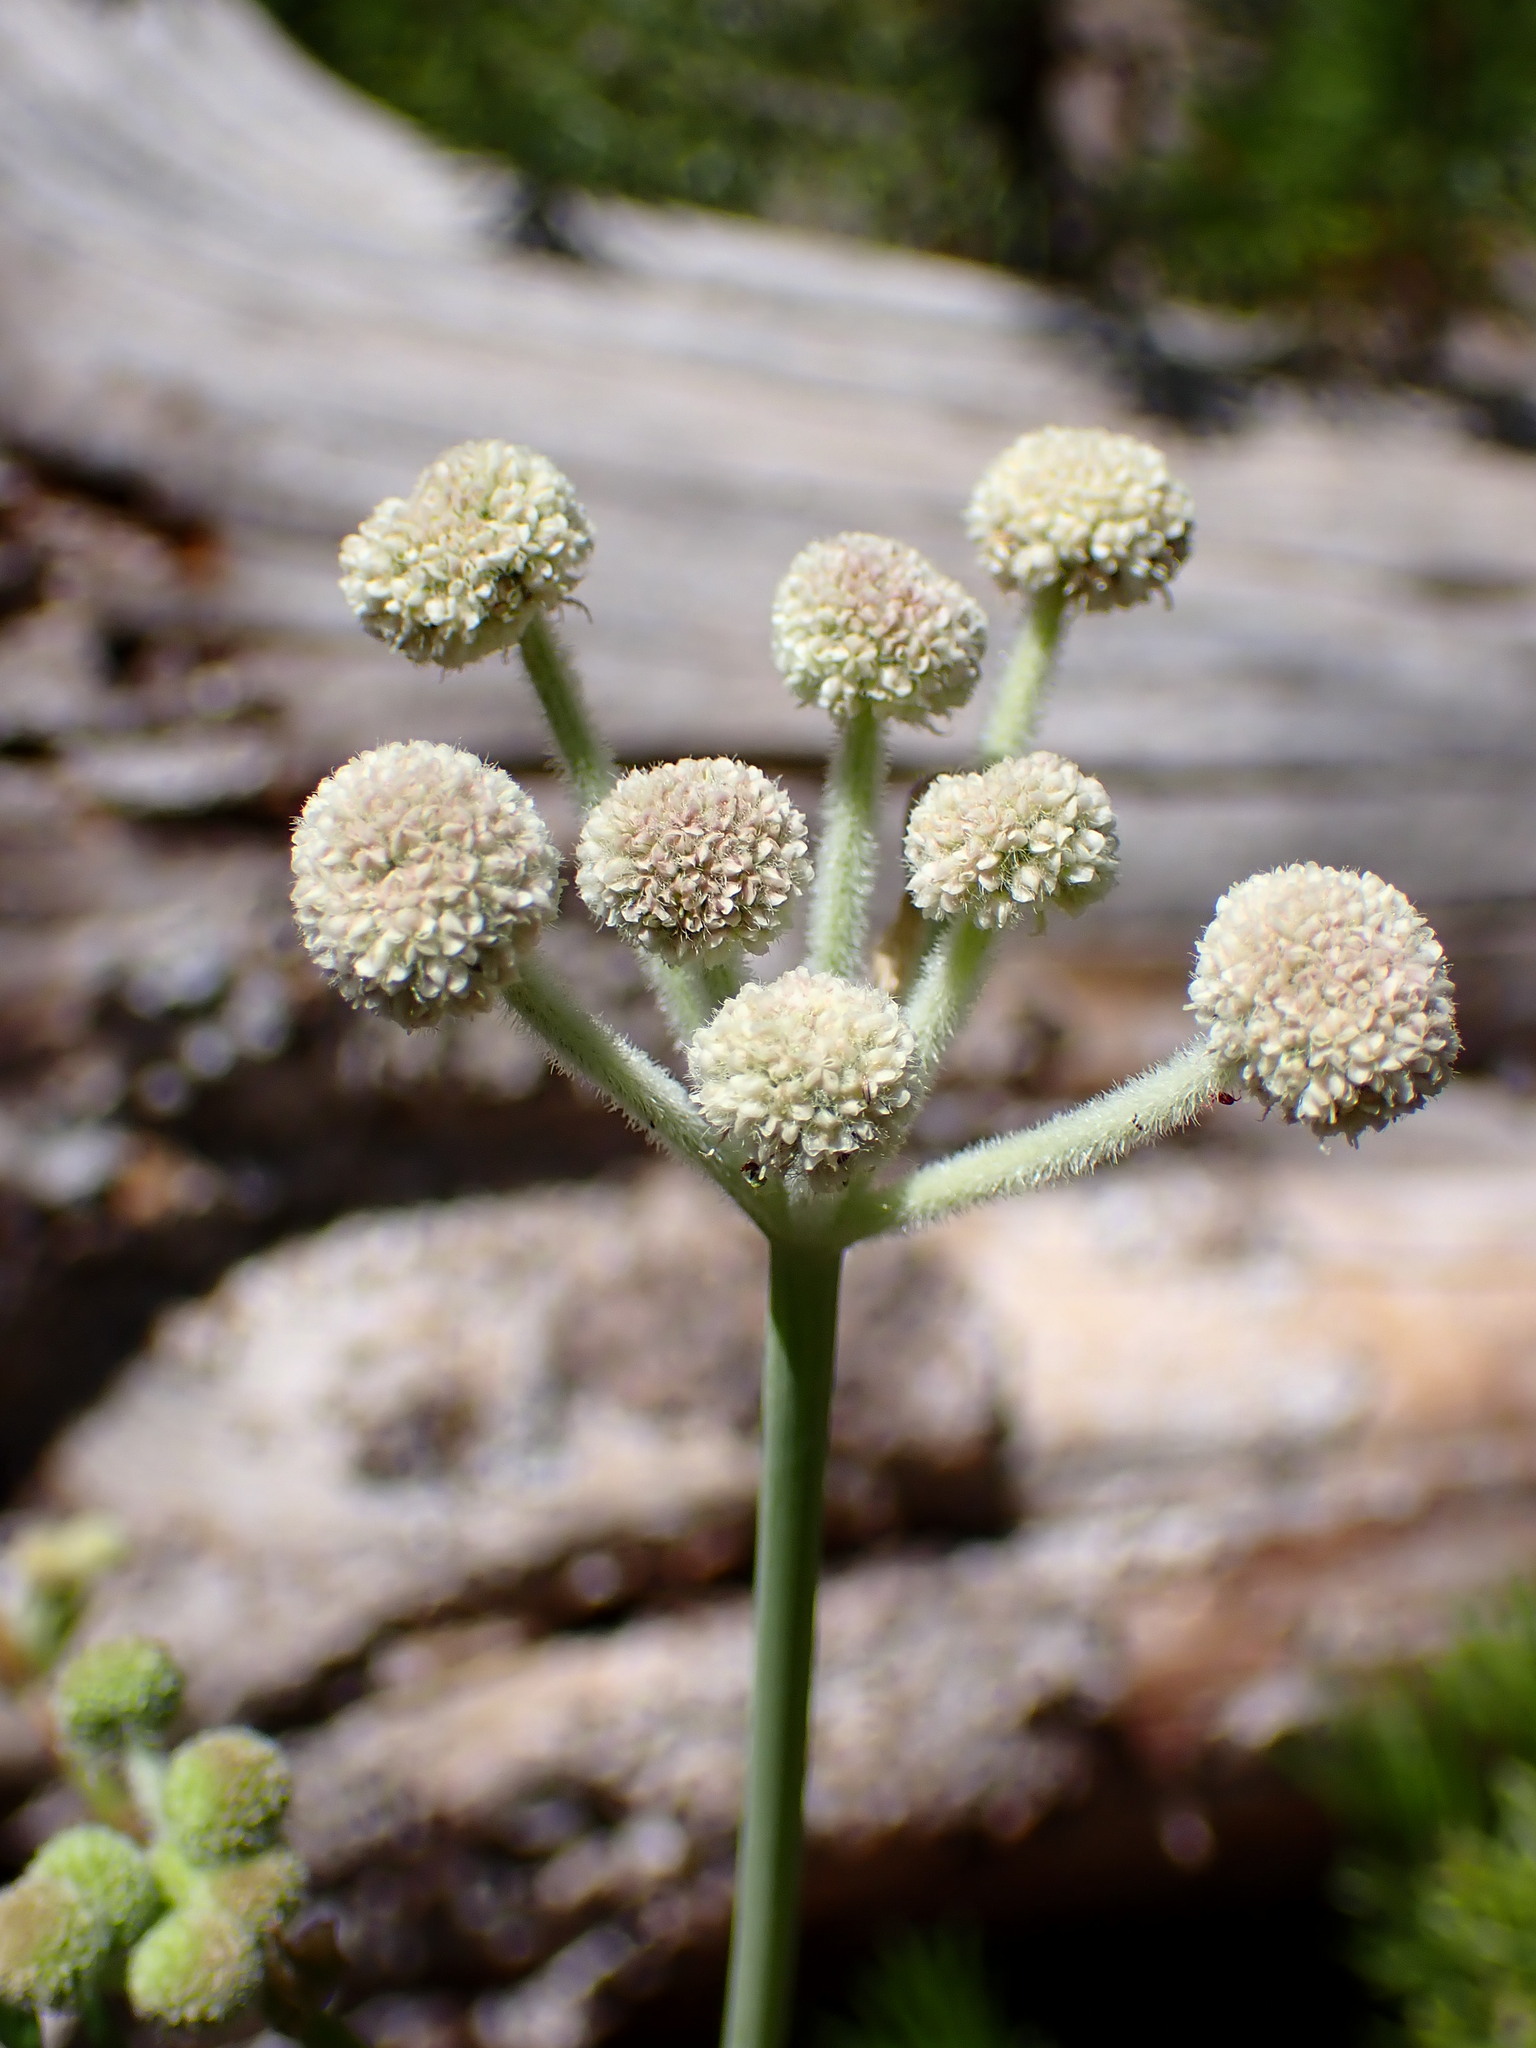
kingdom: Plantae
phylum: Tracheophyta
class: Magnoliopsida
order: Apiales
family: Apiaceae
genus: Angelica
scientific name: Angelica capitellata
